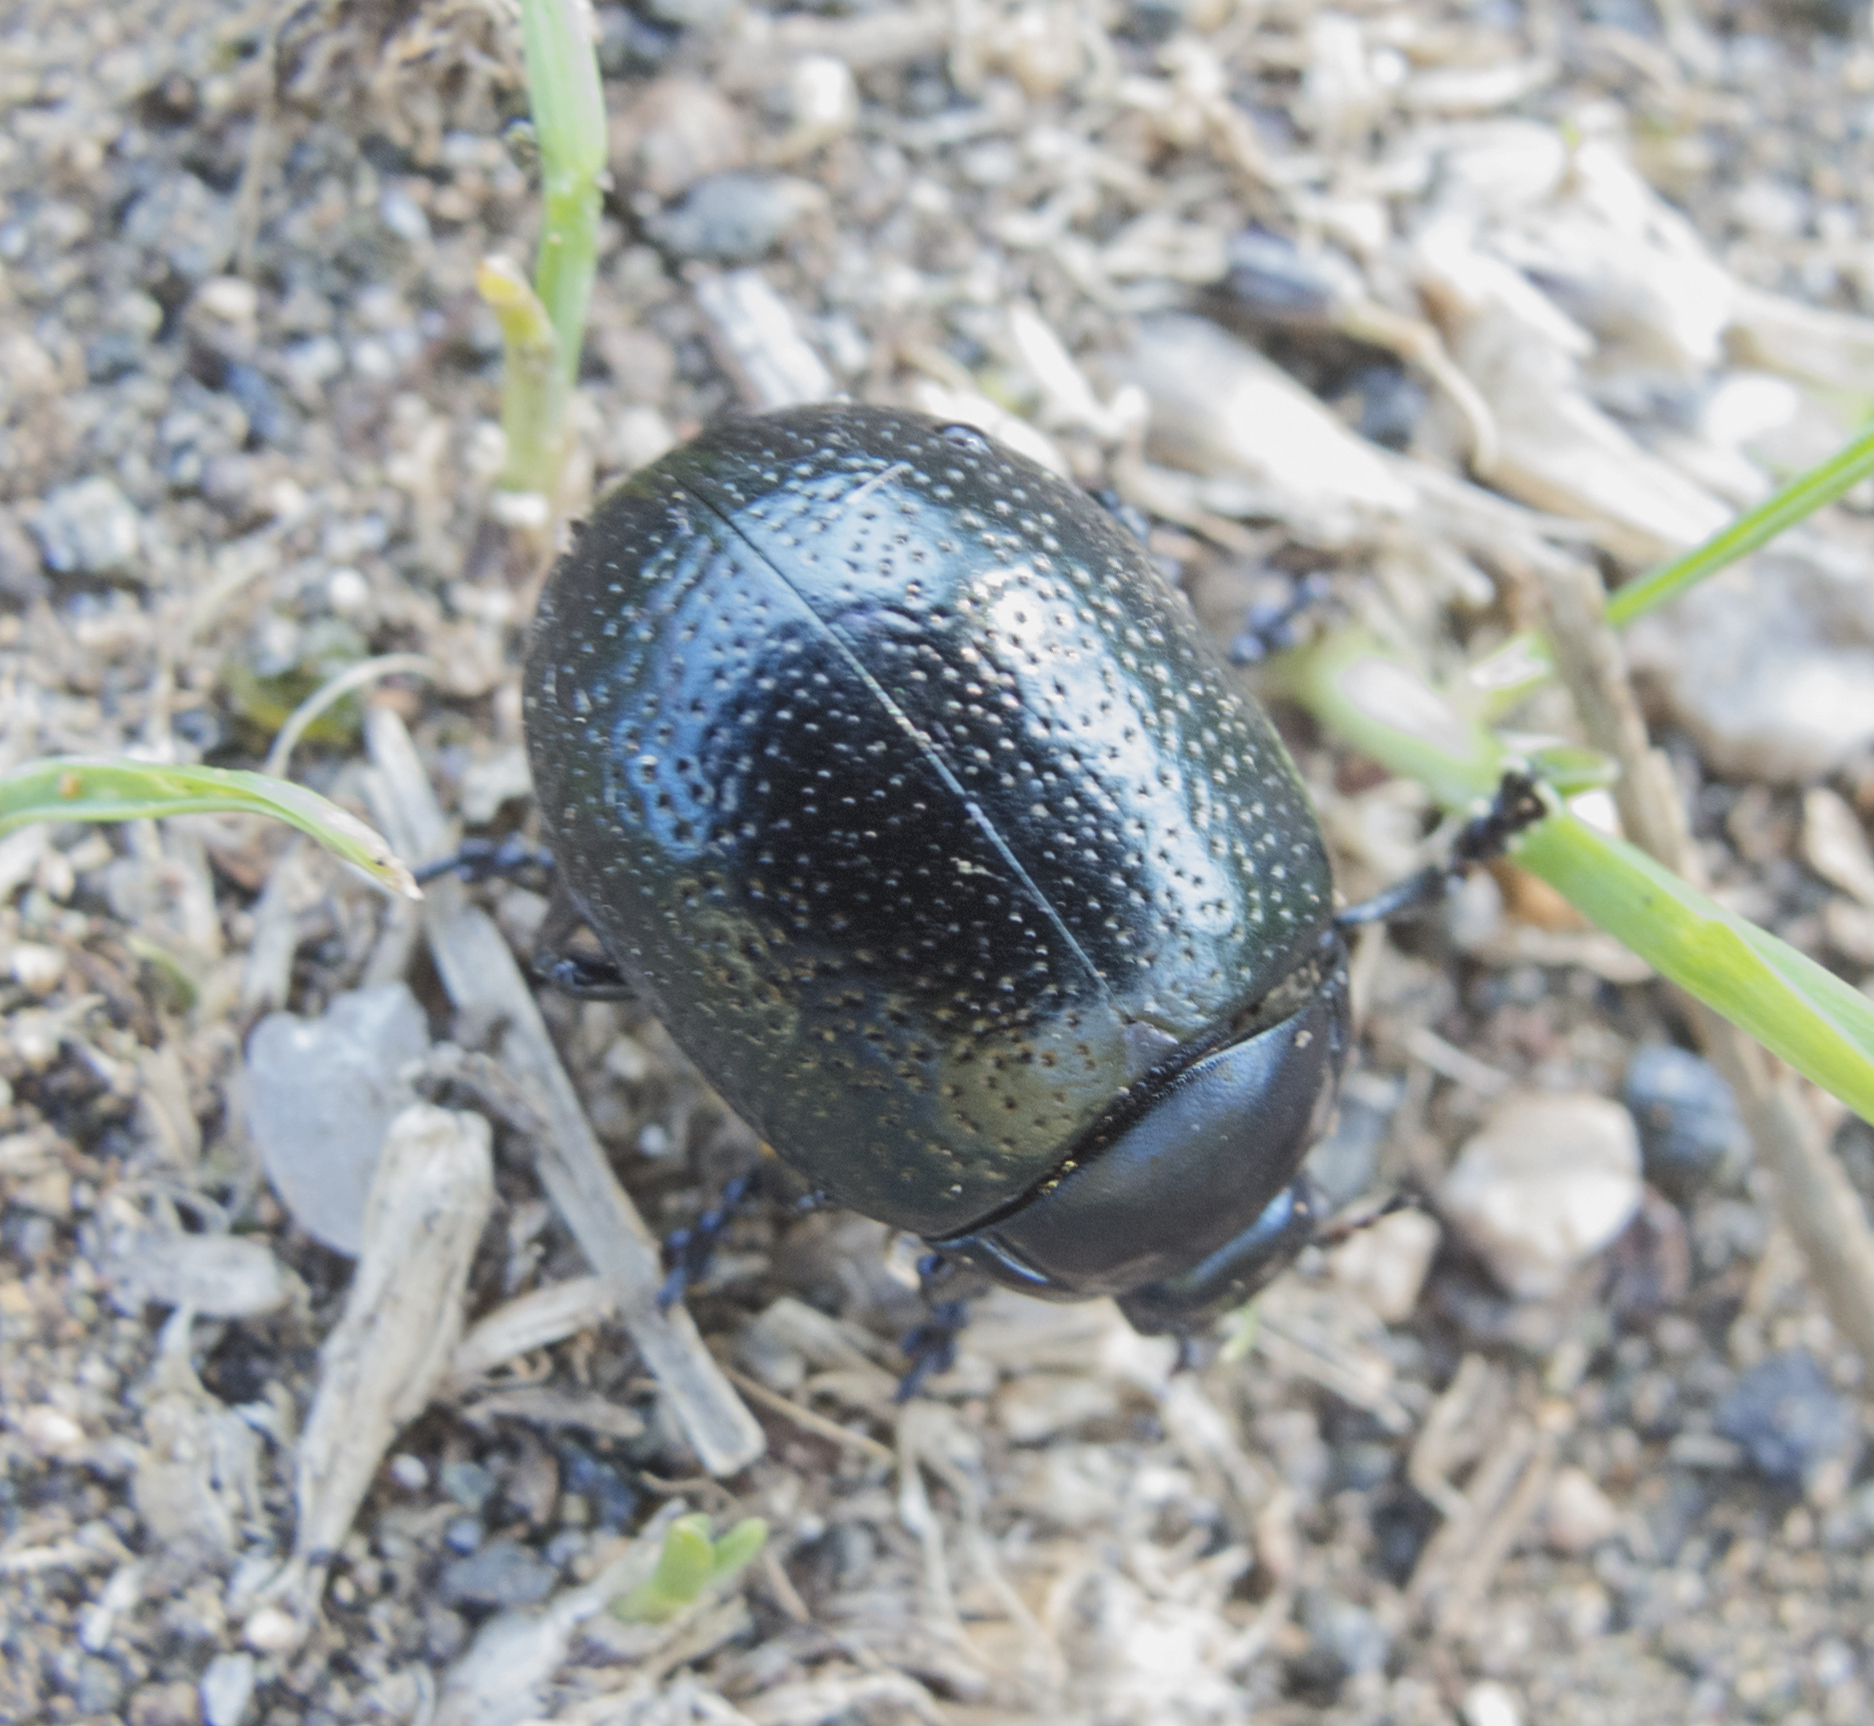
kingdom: Animalia
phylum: Arthropoda
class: Insecta
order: Coleoptera
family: Chrysomelidae
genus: Chrysolina
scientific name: Chrysolina vernalis
